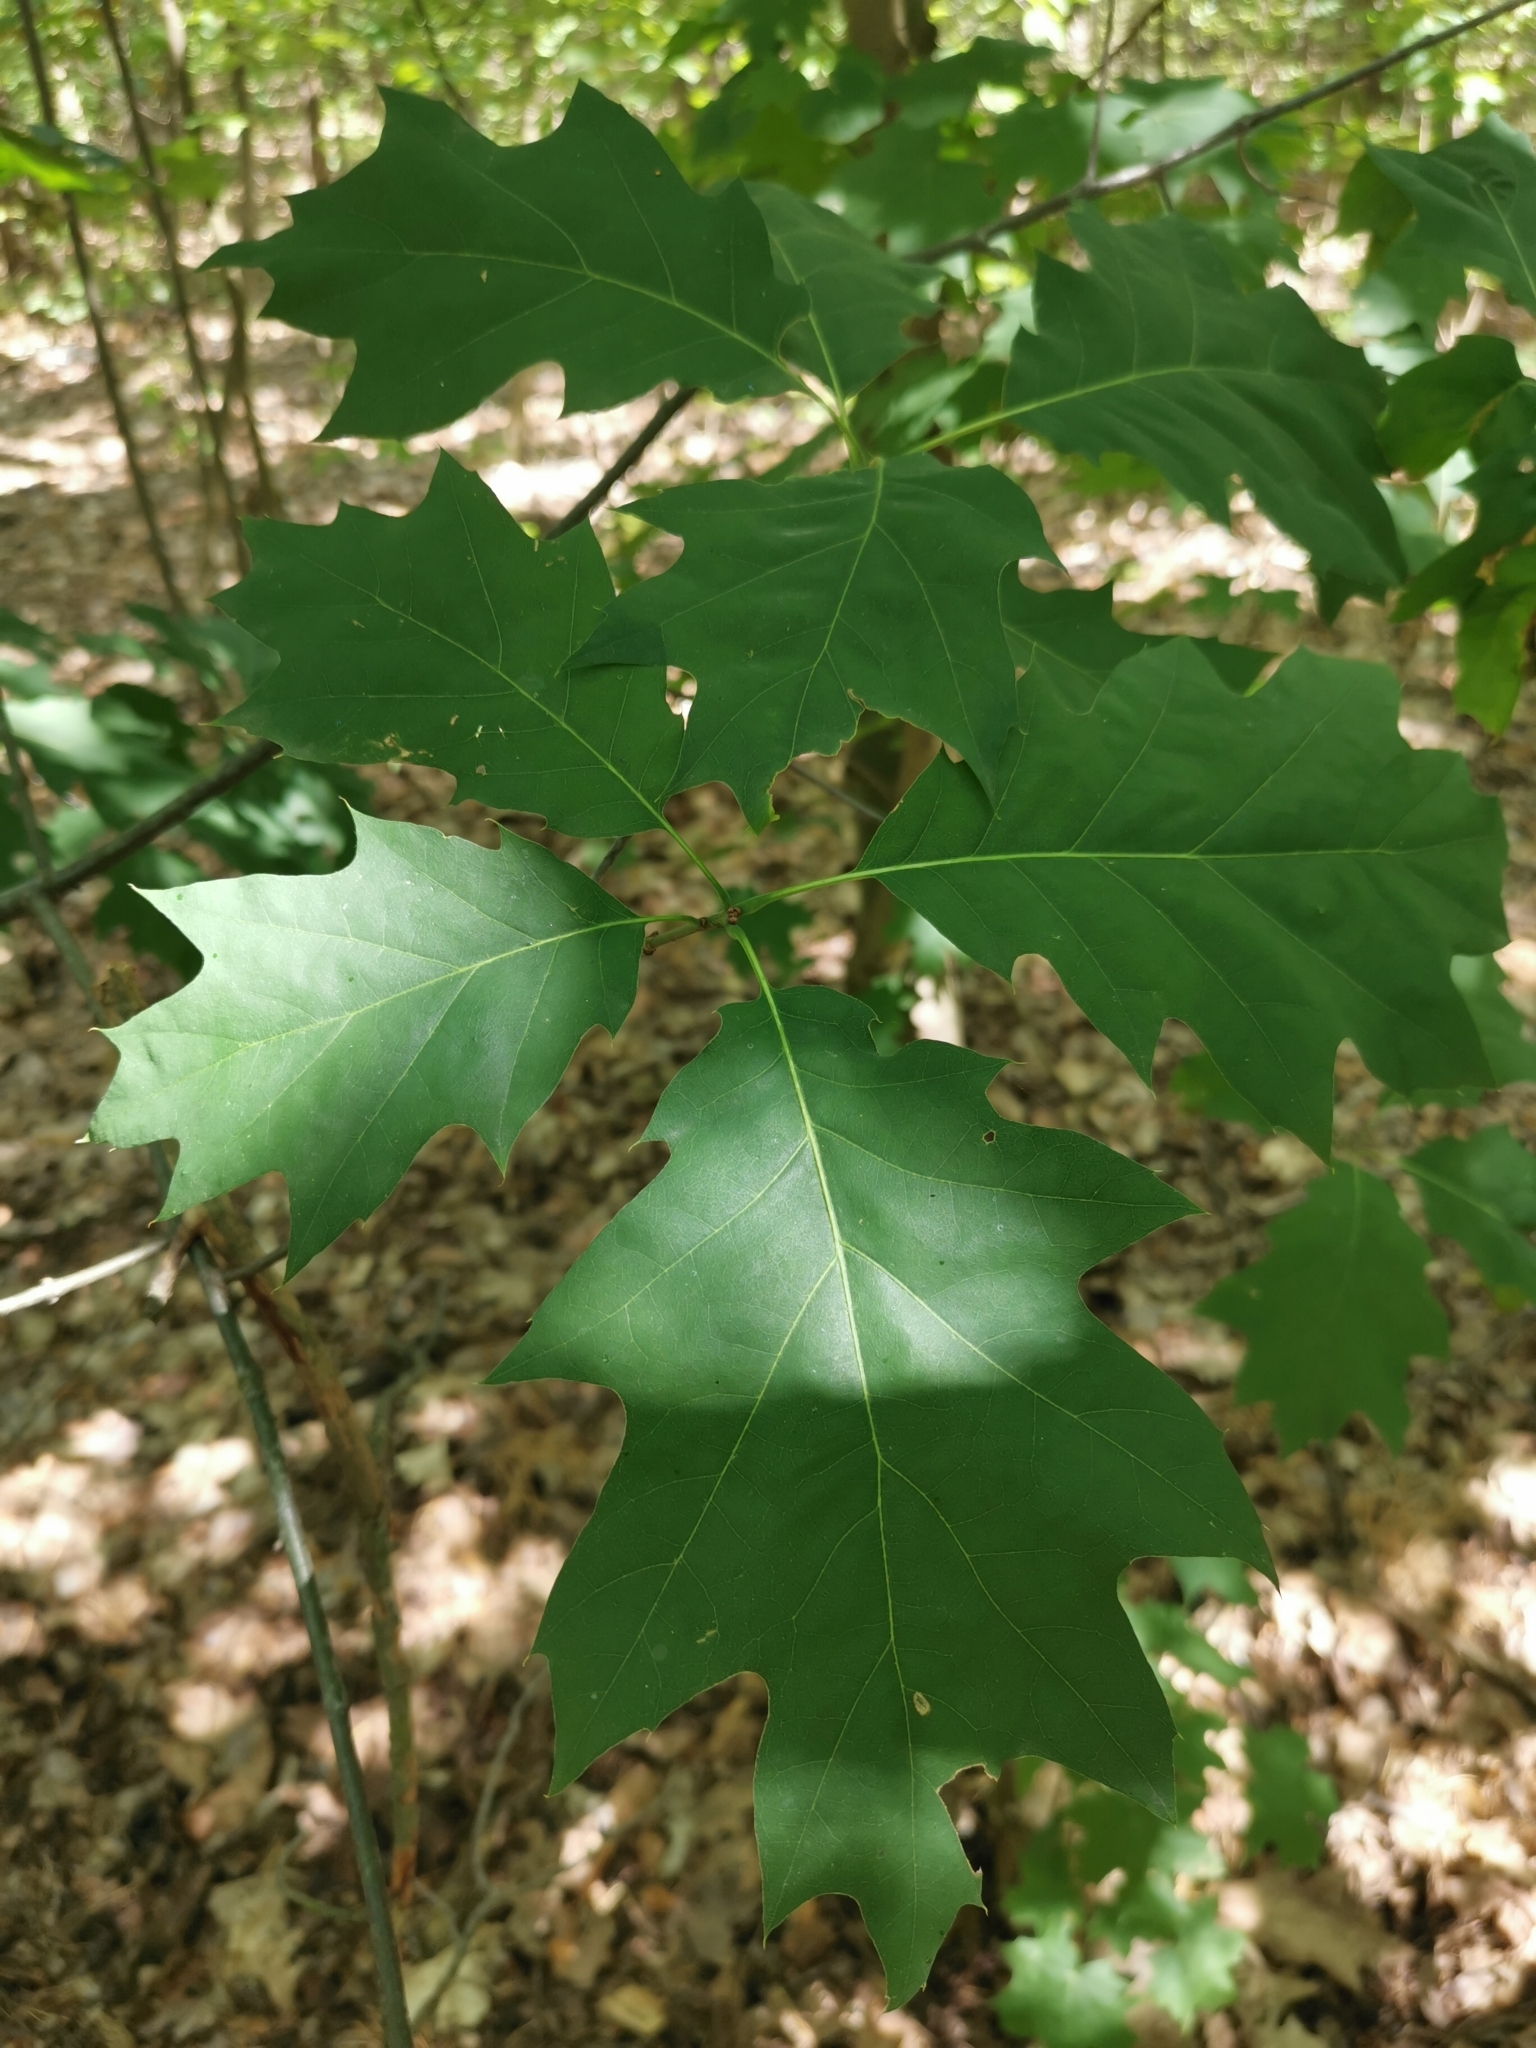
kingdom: Plantae
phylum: Tracheophyta
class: Magnoliopsida
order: Fagales
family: Fagaceae
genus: Quercus
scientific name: Quercus rubra
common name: Red oak
